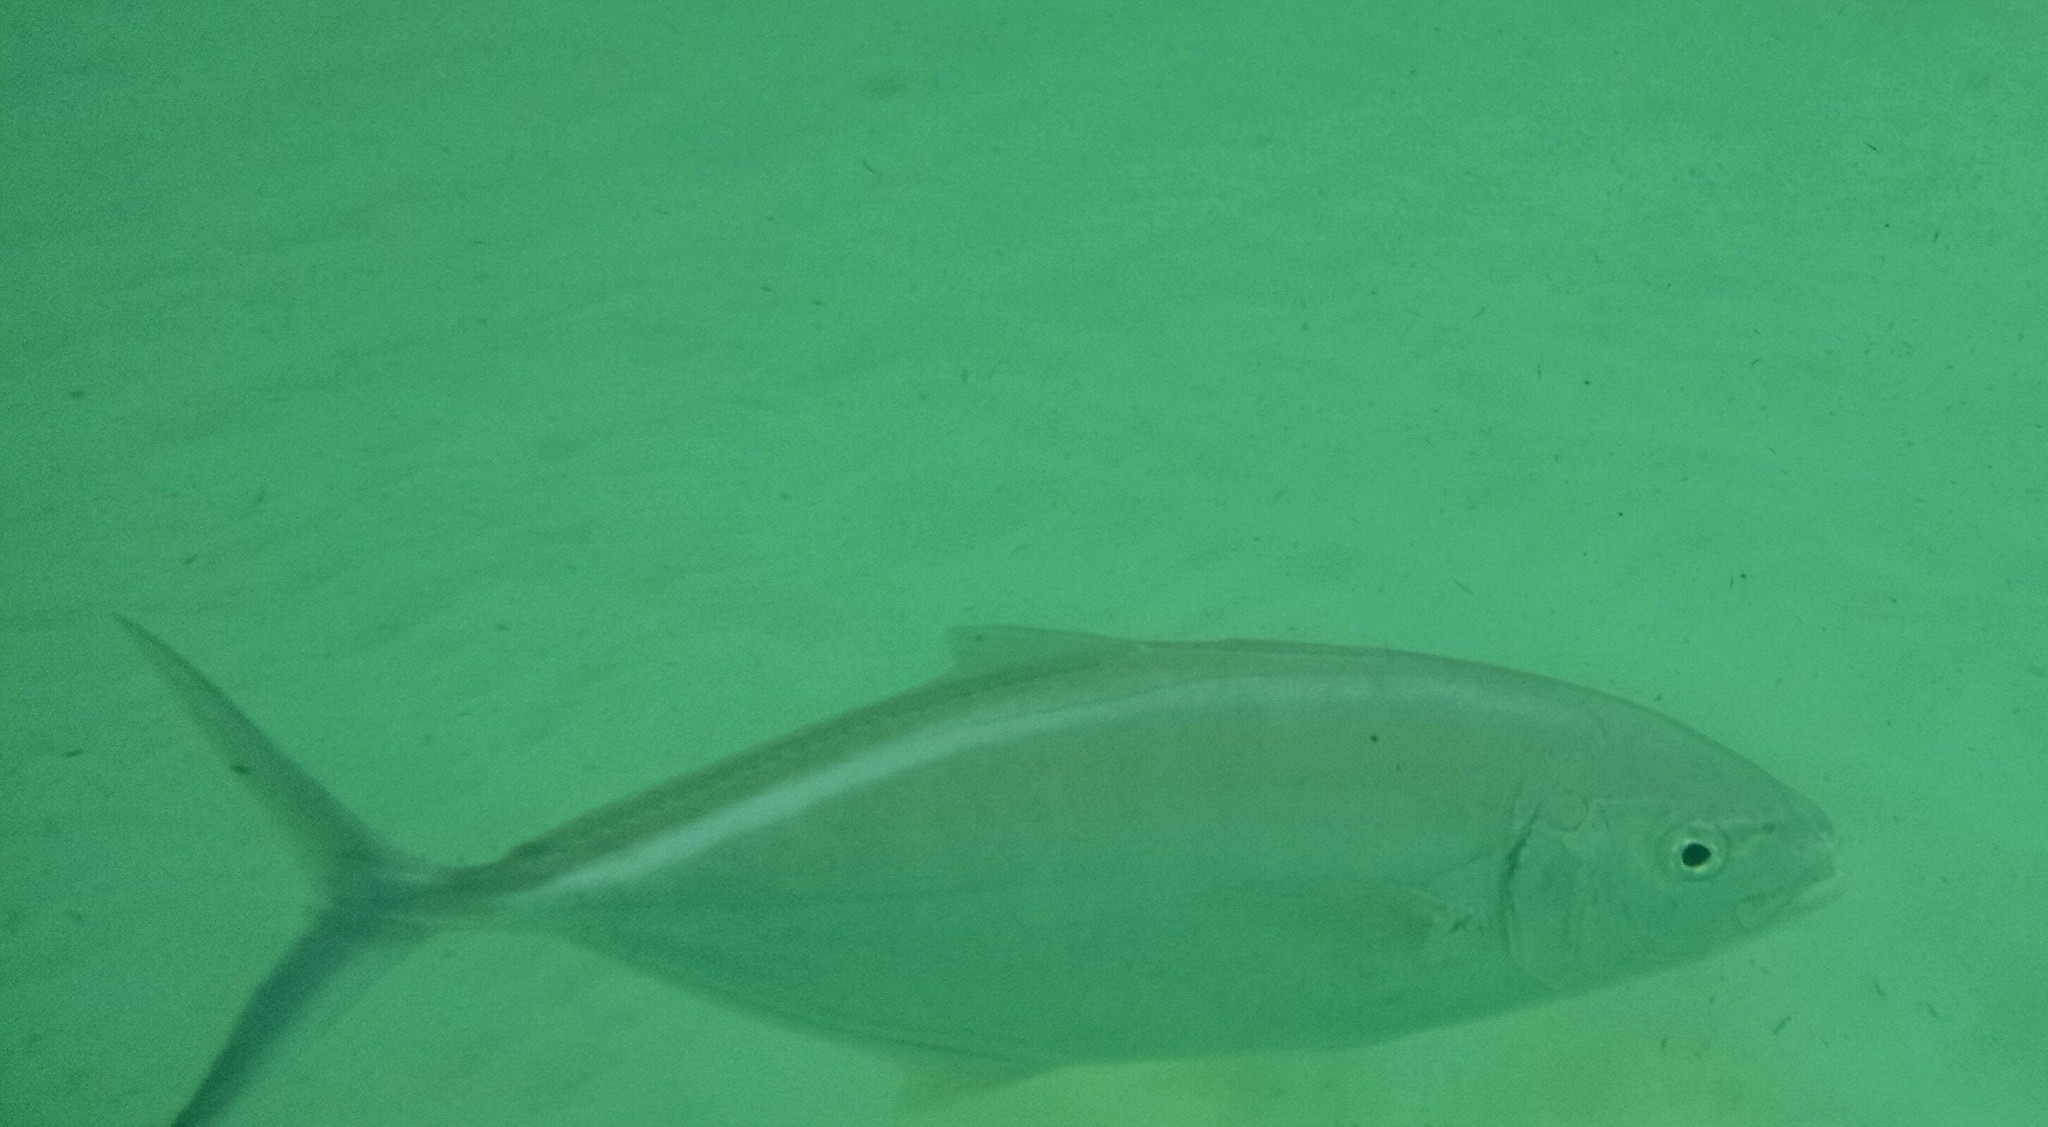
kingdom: Animalia
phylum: Chordata
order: Perciformes
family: Carangidae
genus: Caranx
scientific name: Caranx ruber
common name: Bar jack
